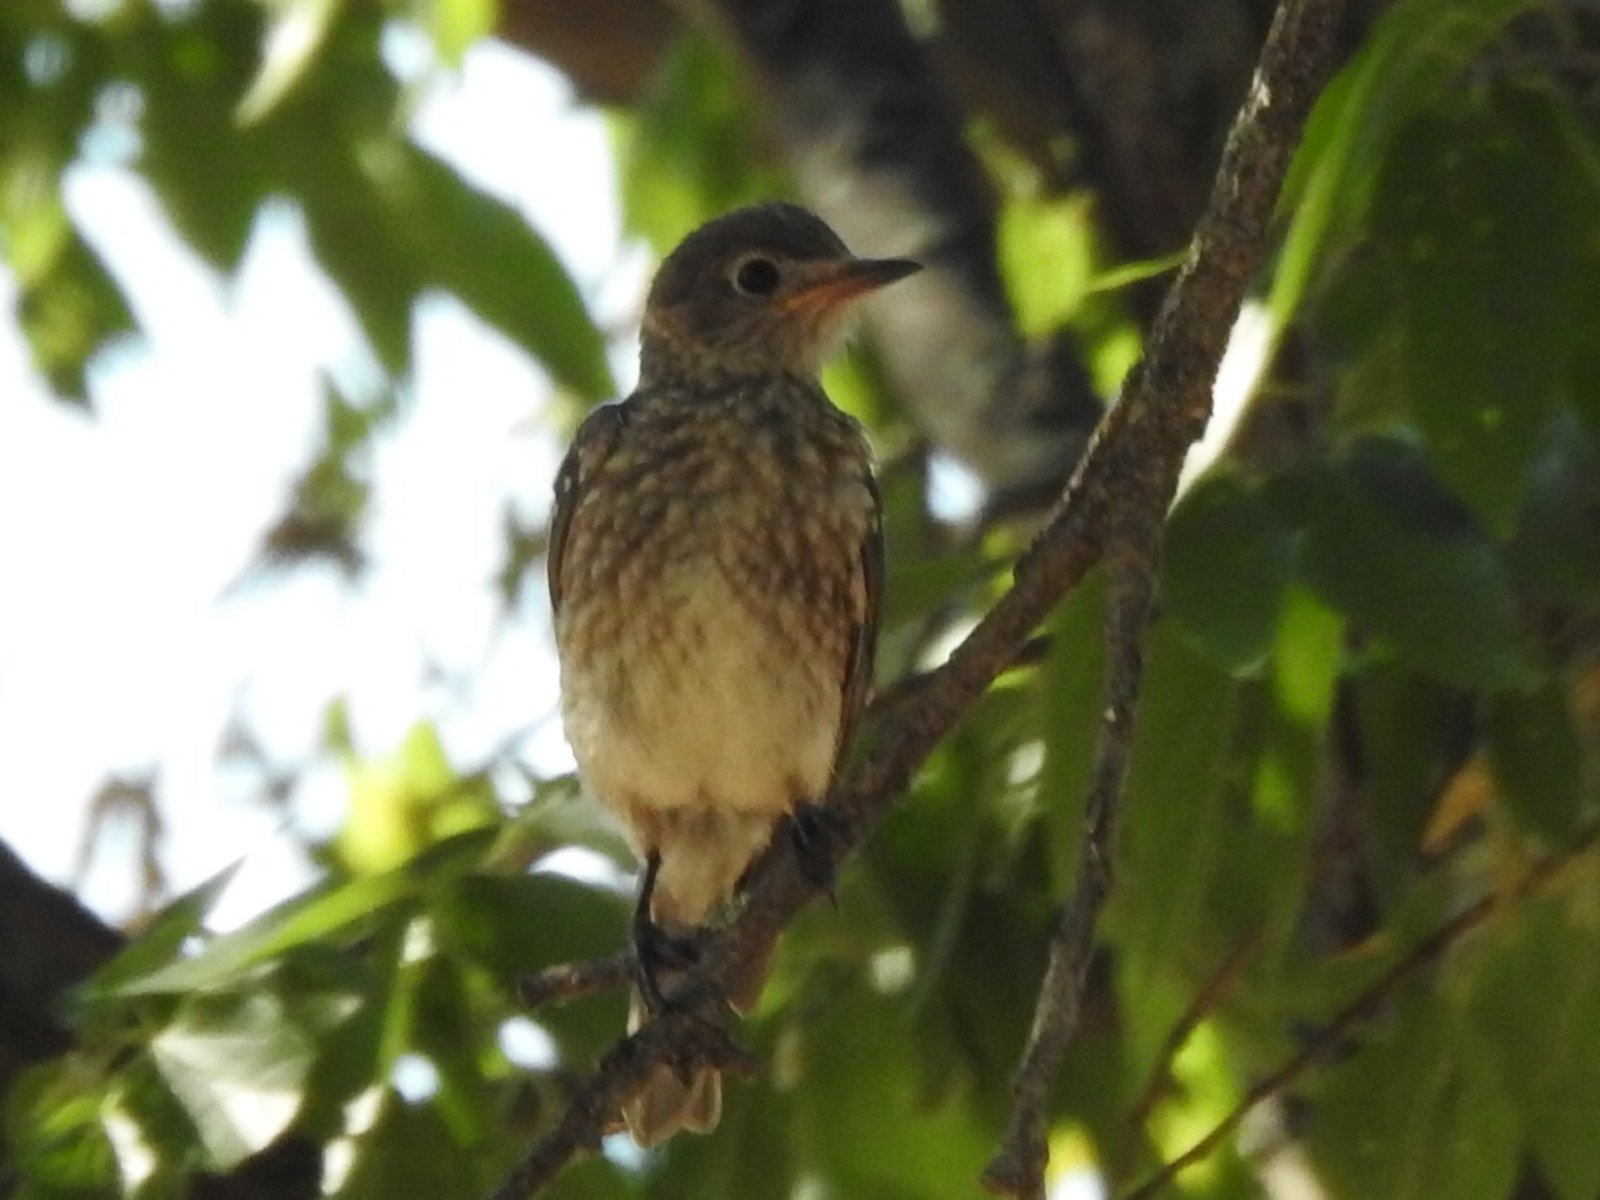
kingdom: Animalia
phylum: Chordata
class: Aves
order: Passeriformes
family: Turdidae
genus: Sialia
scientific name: Sialia sialis
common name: Eastern bluebird
